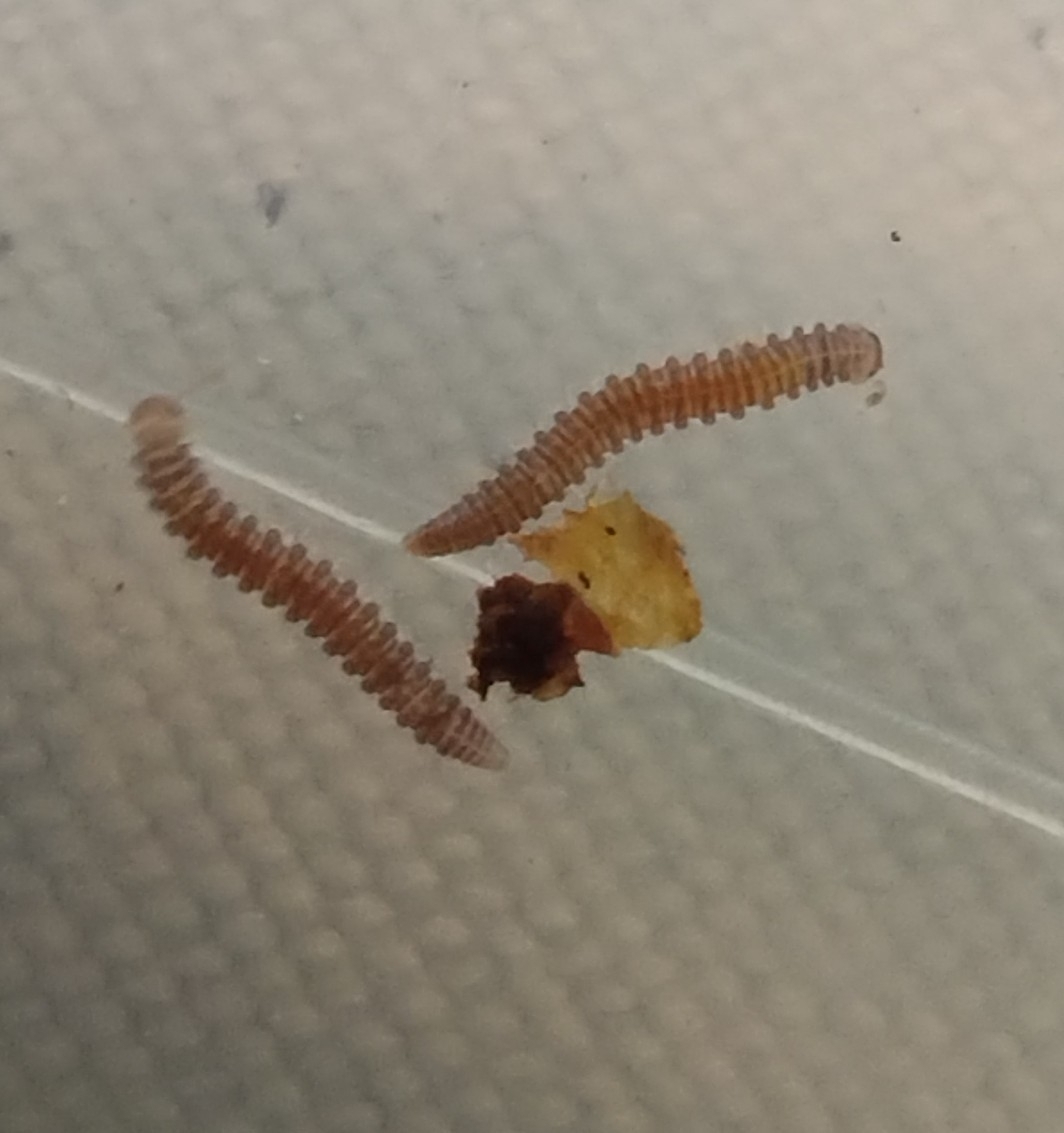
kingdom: Animalia
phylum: Arthropoda
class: Diplopoda
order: Chordeumatida
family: Branneriidae
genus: Branneria
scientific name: Branneria carinata
